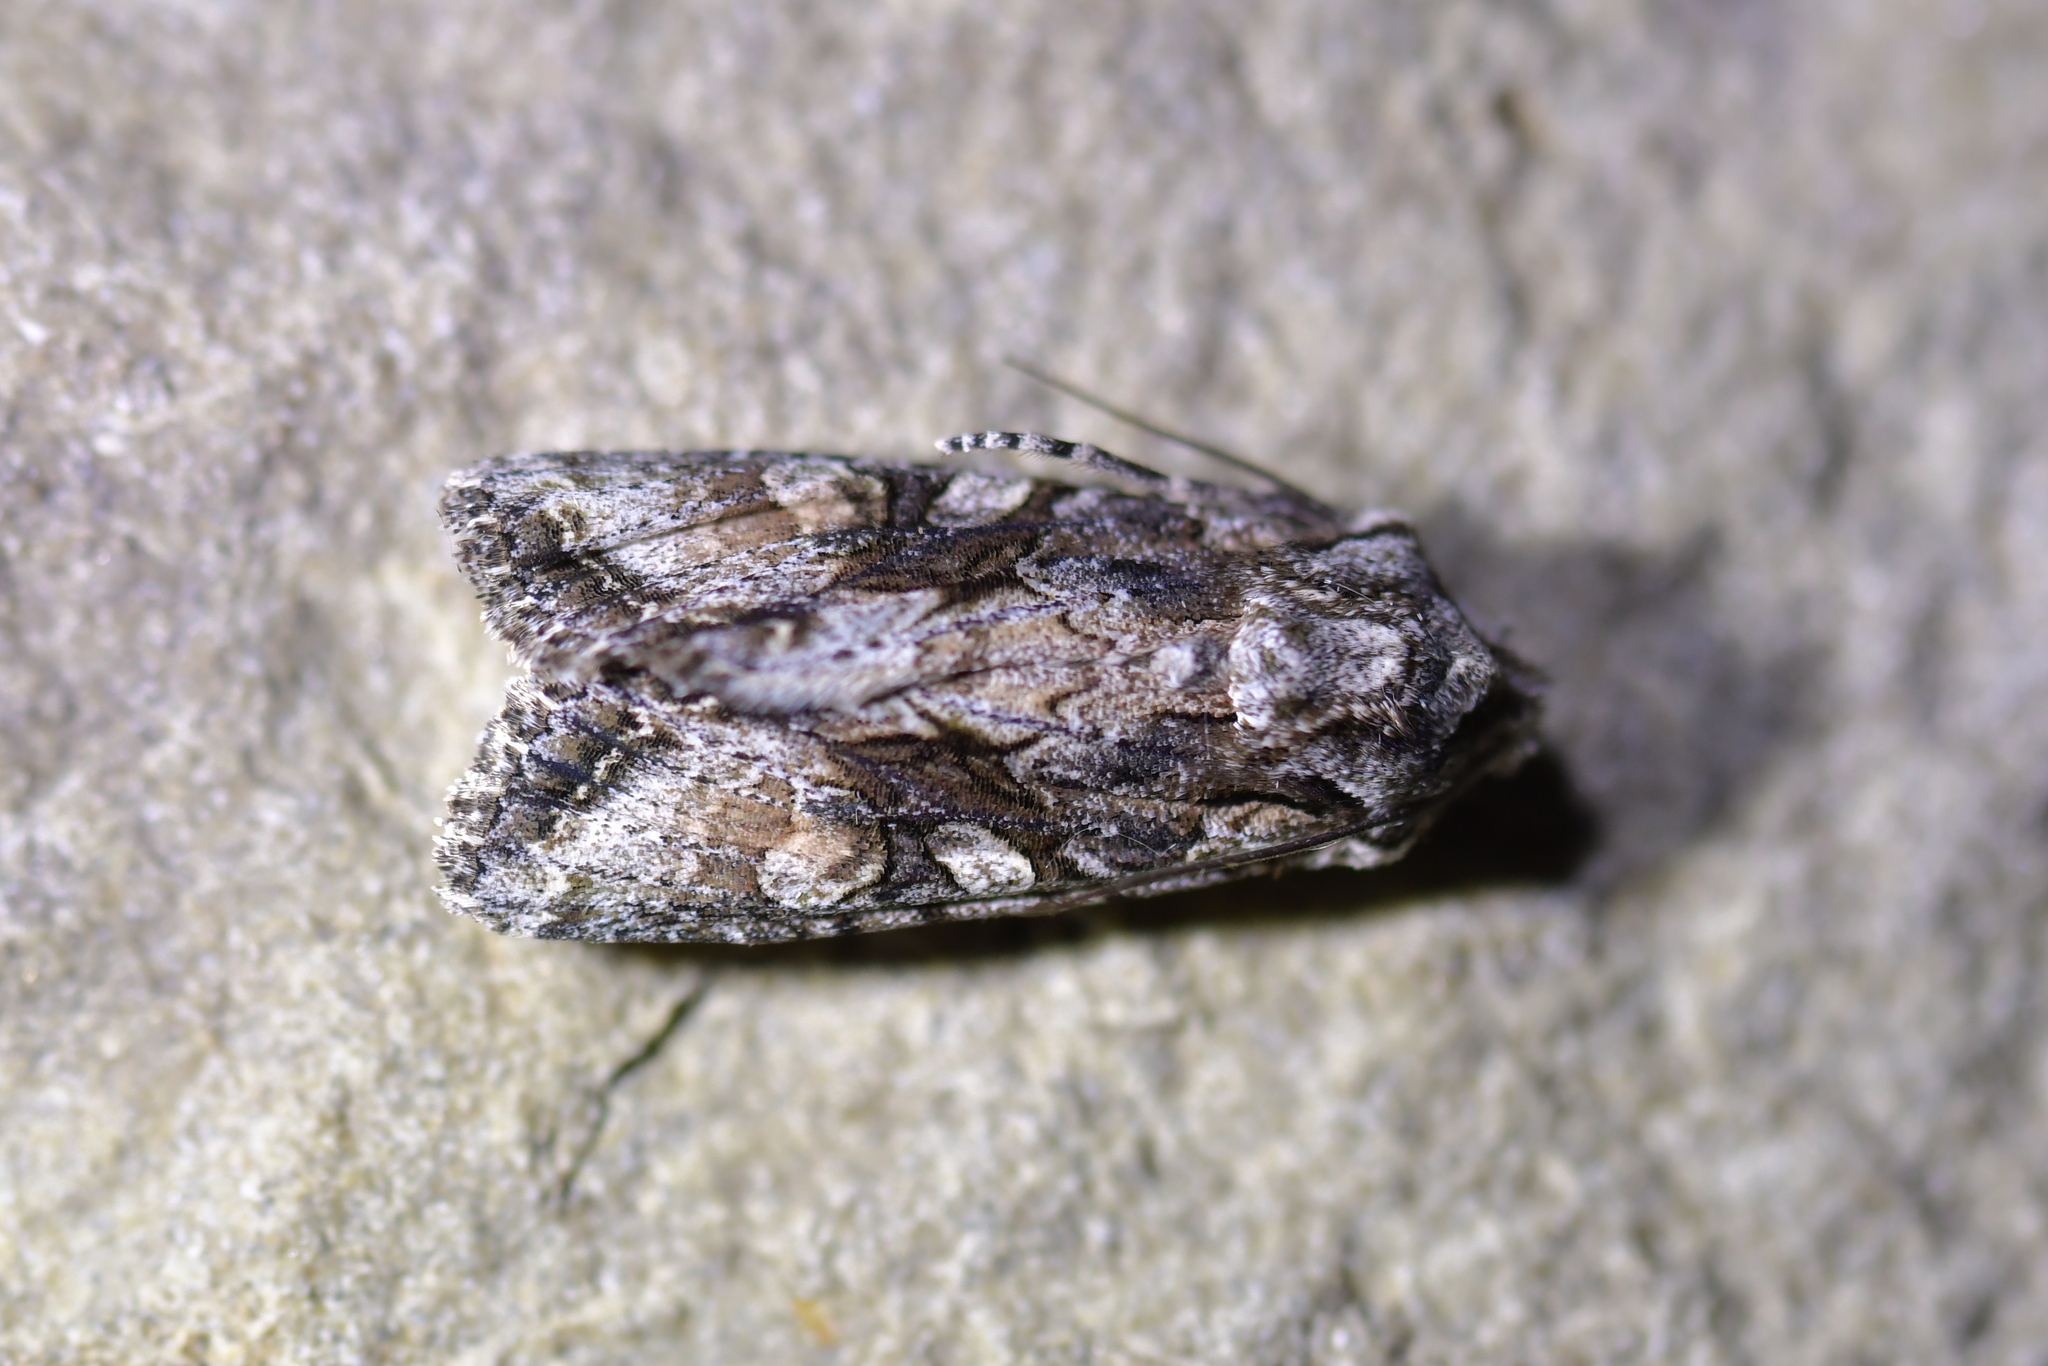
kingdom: Animalia
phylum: Arthropoda
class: Insecta
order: Lepidoptera
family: Noctuidae
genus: Ichneutica
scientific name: Ichneutica mutans
